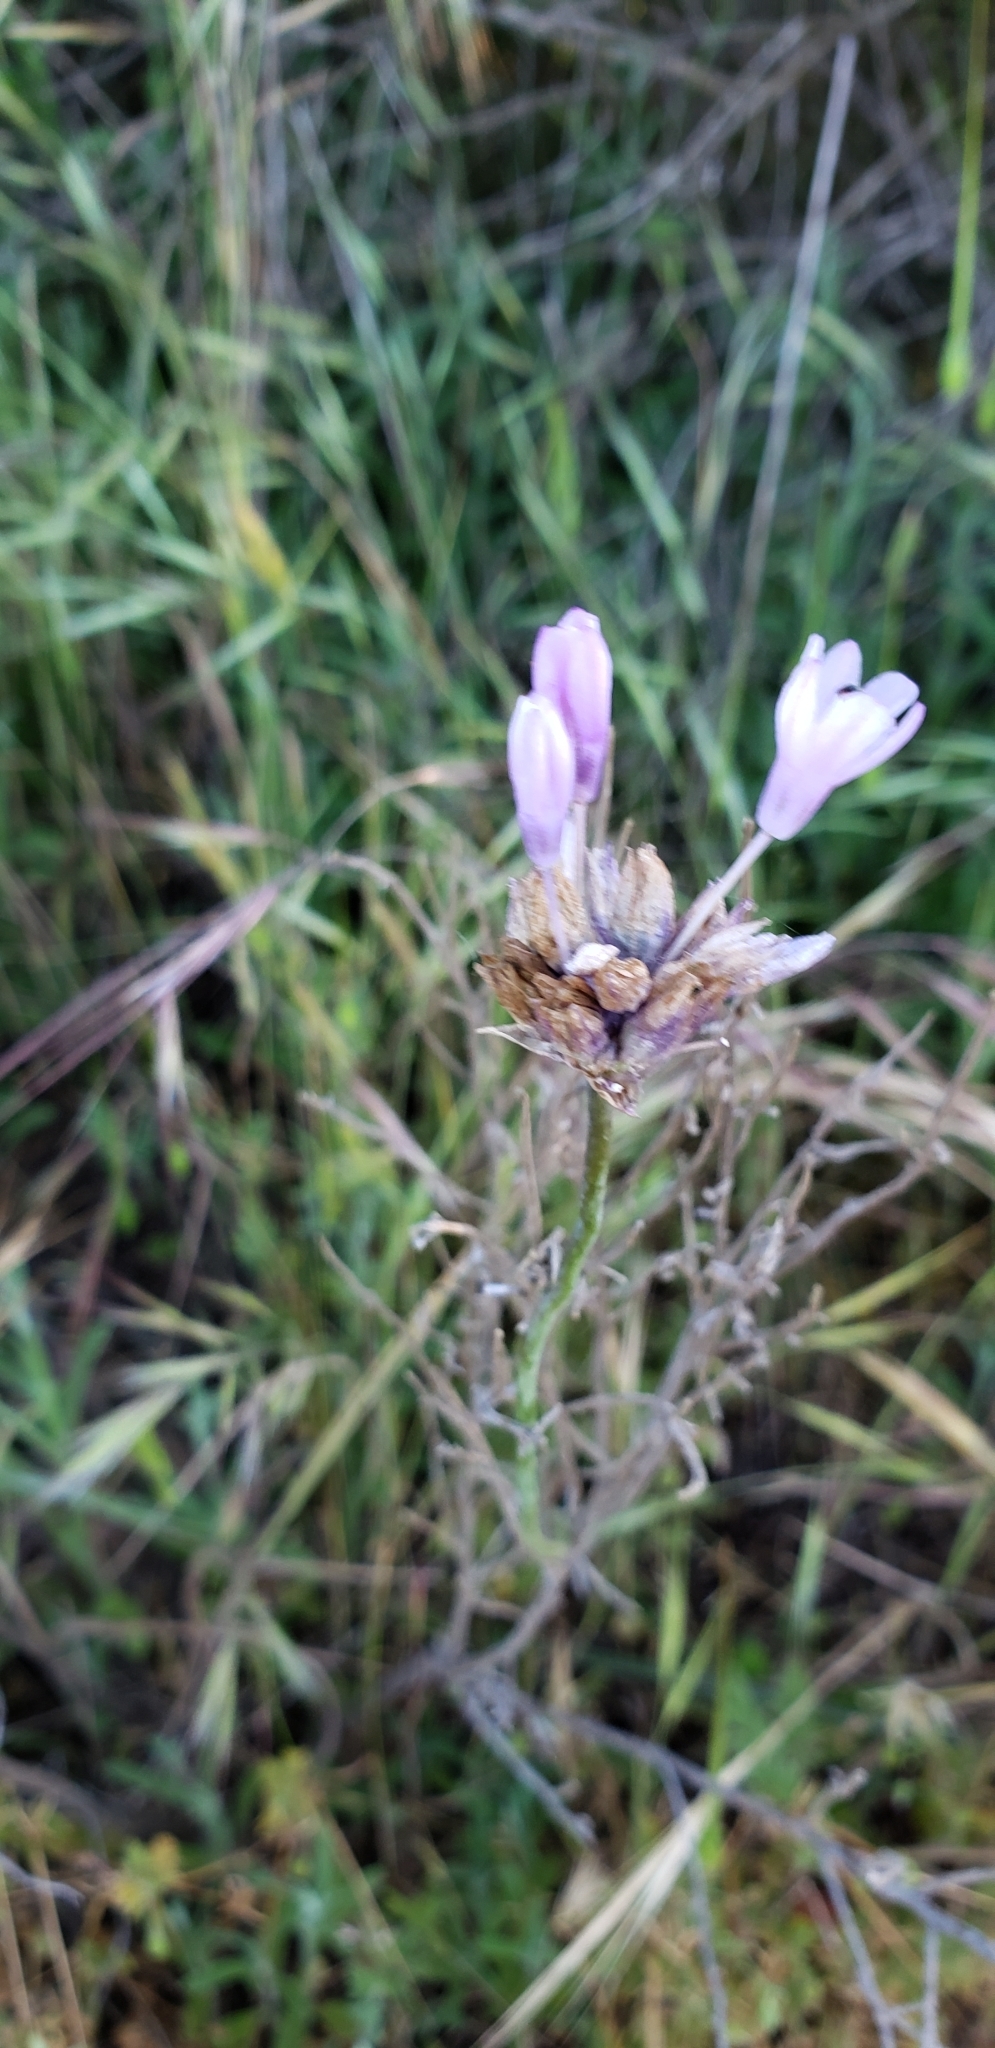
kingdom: Plantae
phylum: Tracheophyta
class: Liliopsida
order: Asparagales
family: Asparagaceae
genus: Dipterostemon
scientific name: Dipterostemon capitatus
